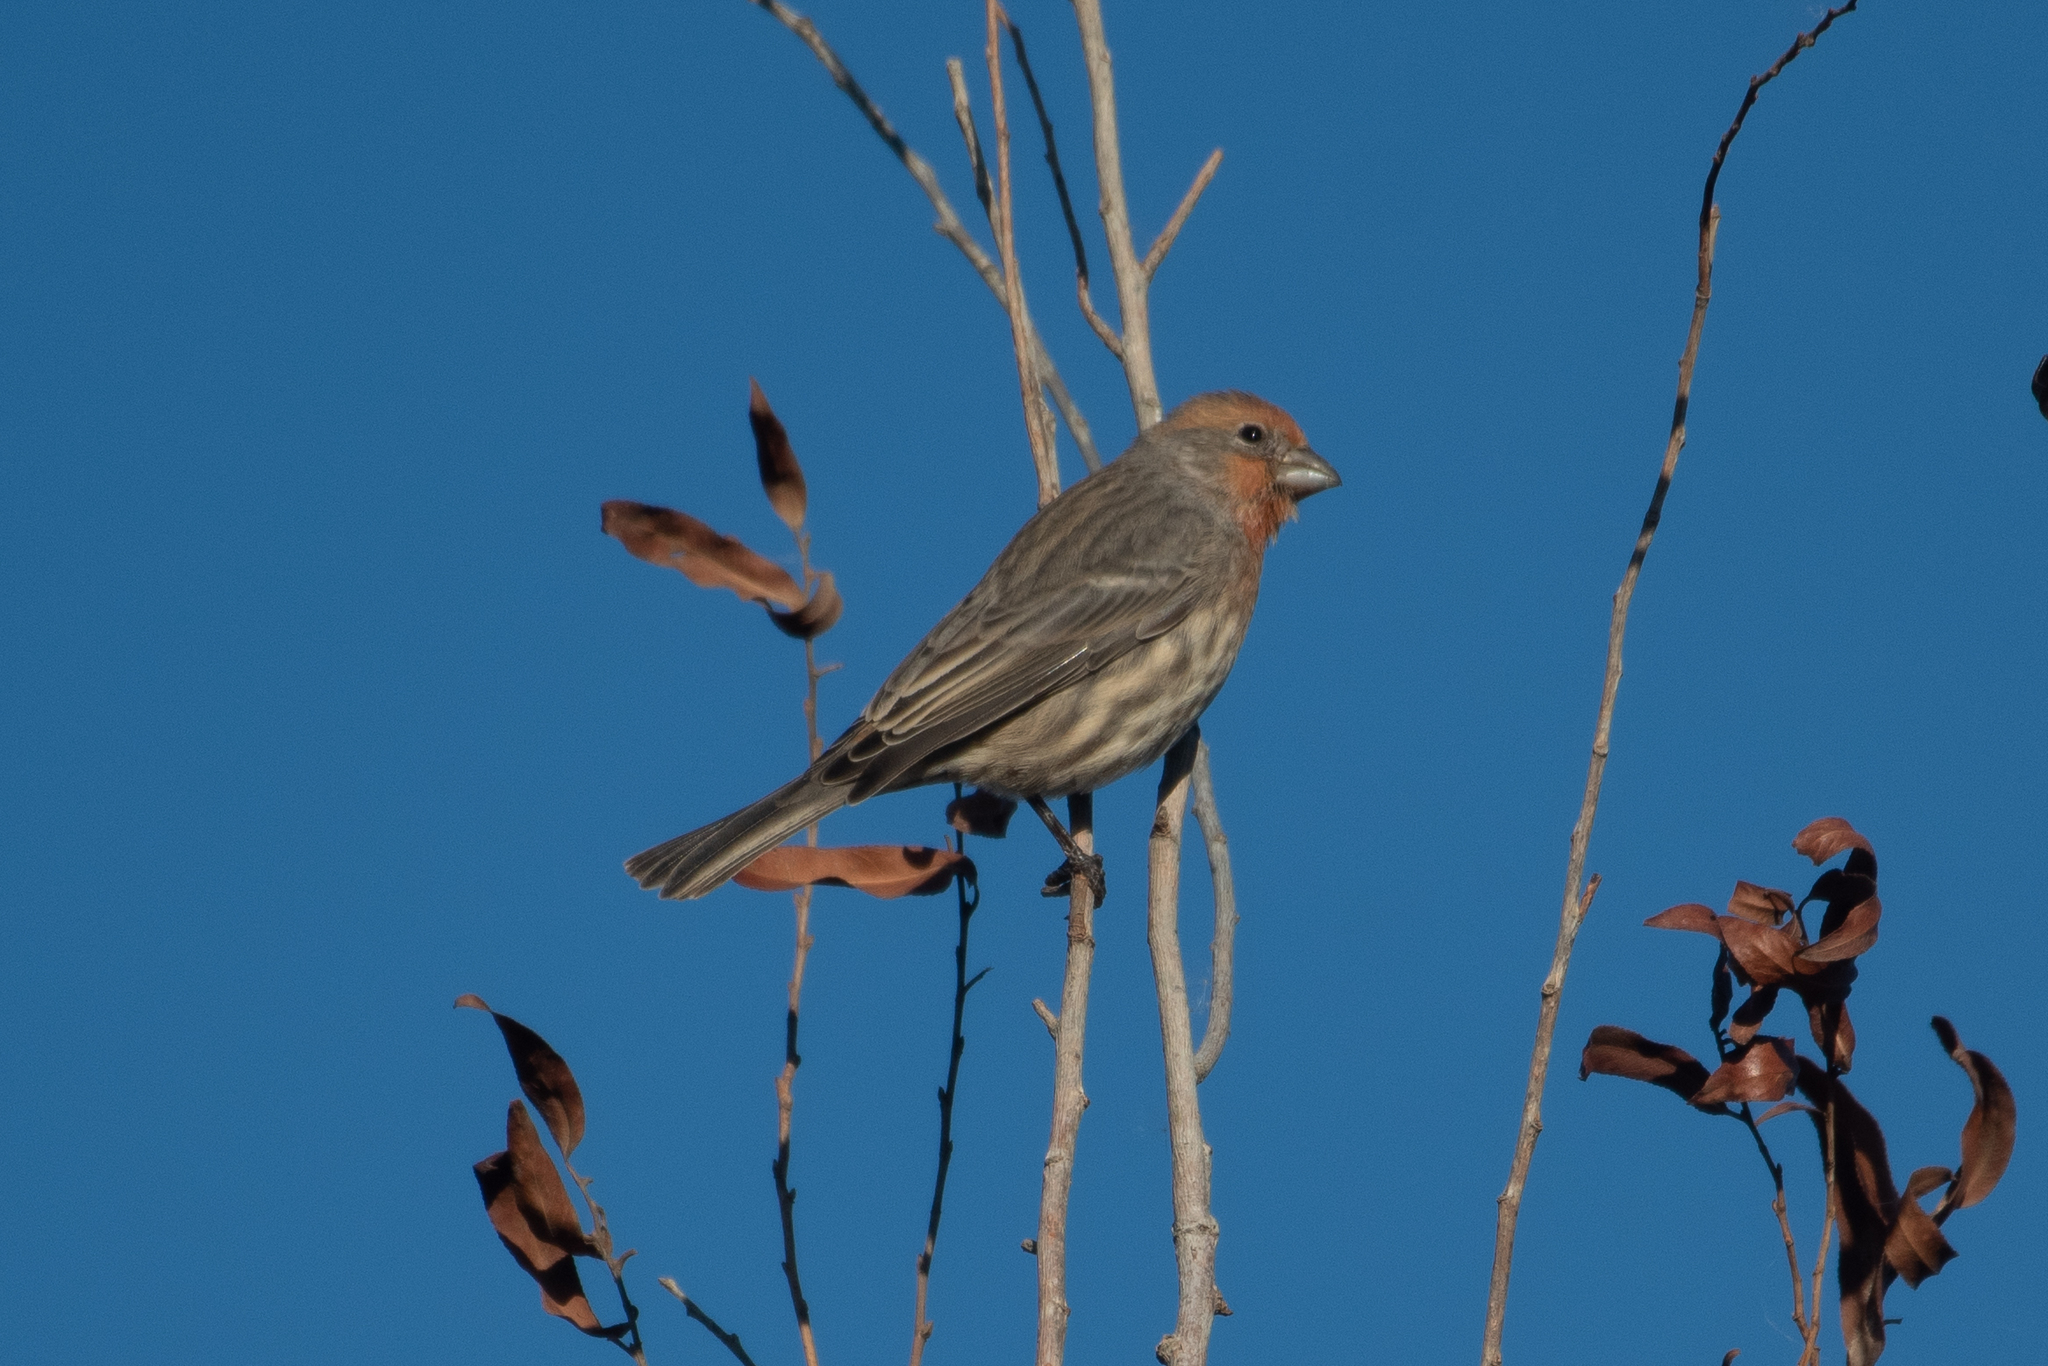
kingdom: Animalia
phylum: Chordata
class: Aves
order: Passeriformes
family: Fringillidae
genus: Haemorhous
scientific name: Haemorhous mexicanus
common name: House finch
